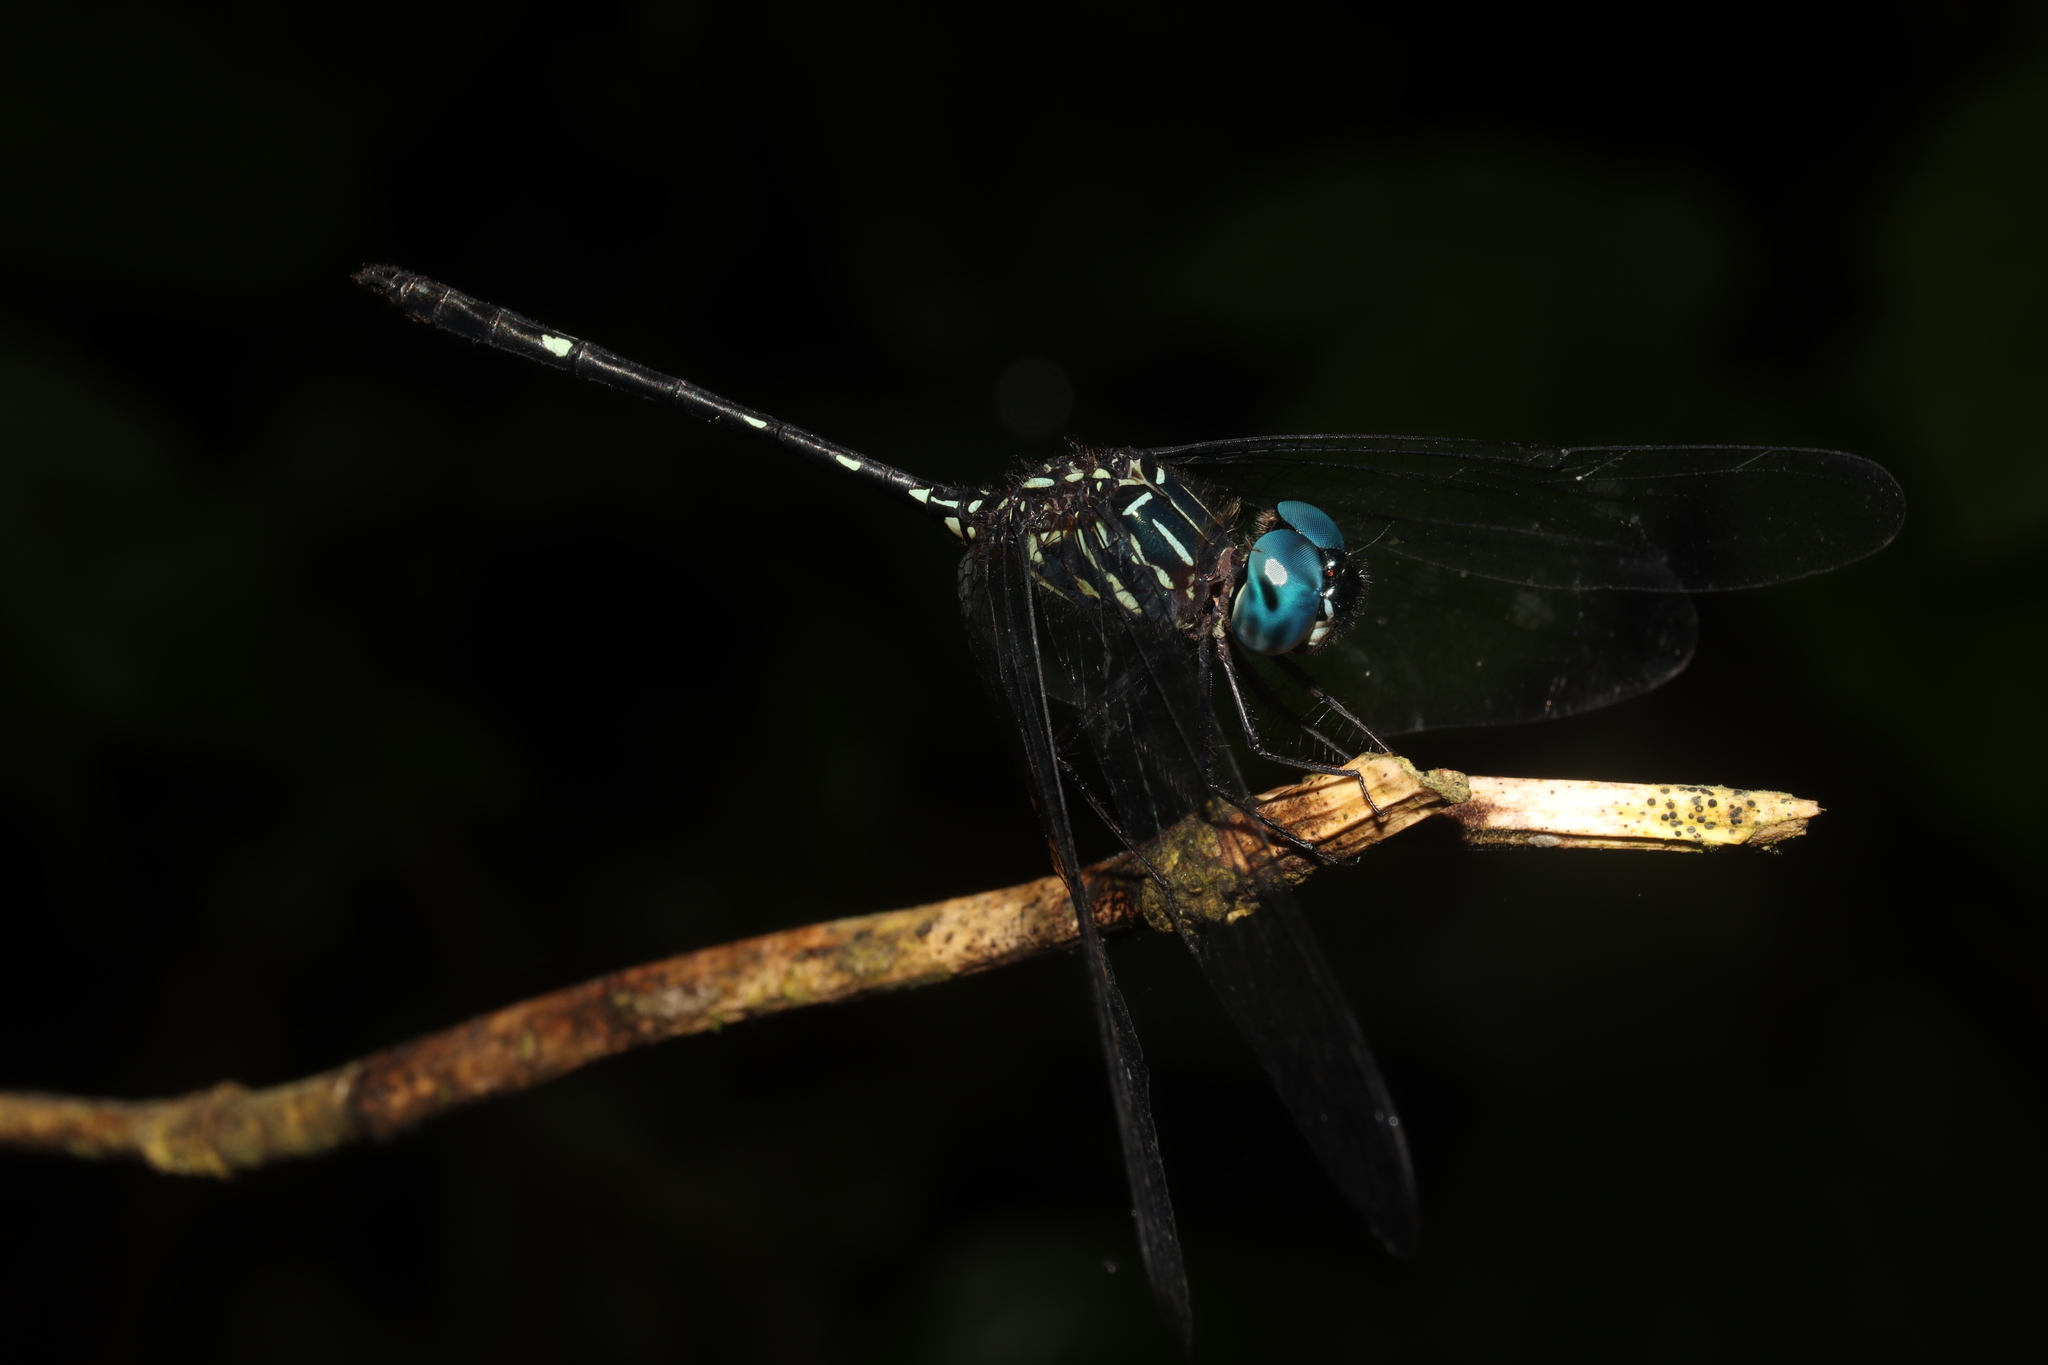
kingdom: Animalia
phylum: Arthropoda
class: Insecta
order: Odonata
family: Libellulidae
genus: Dythemis
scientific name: Dythemis nigra
